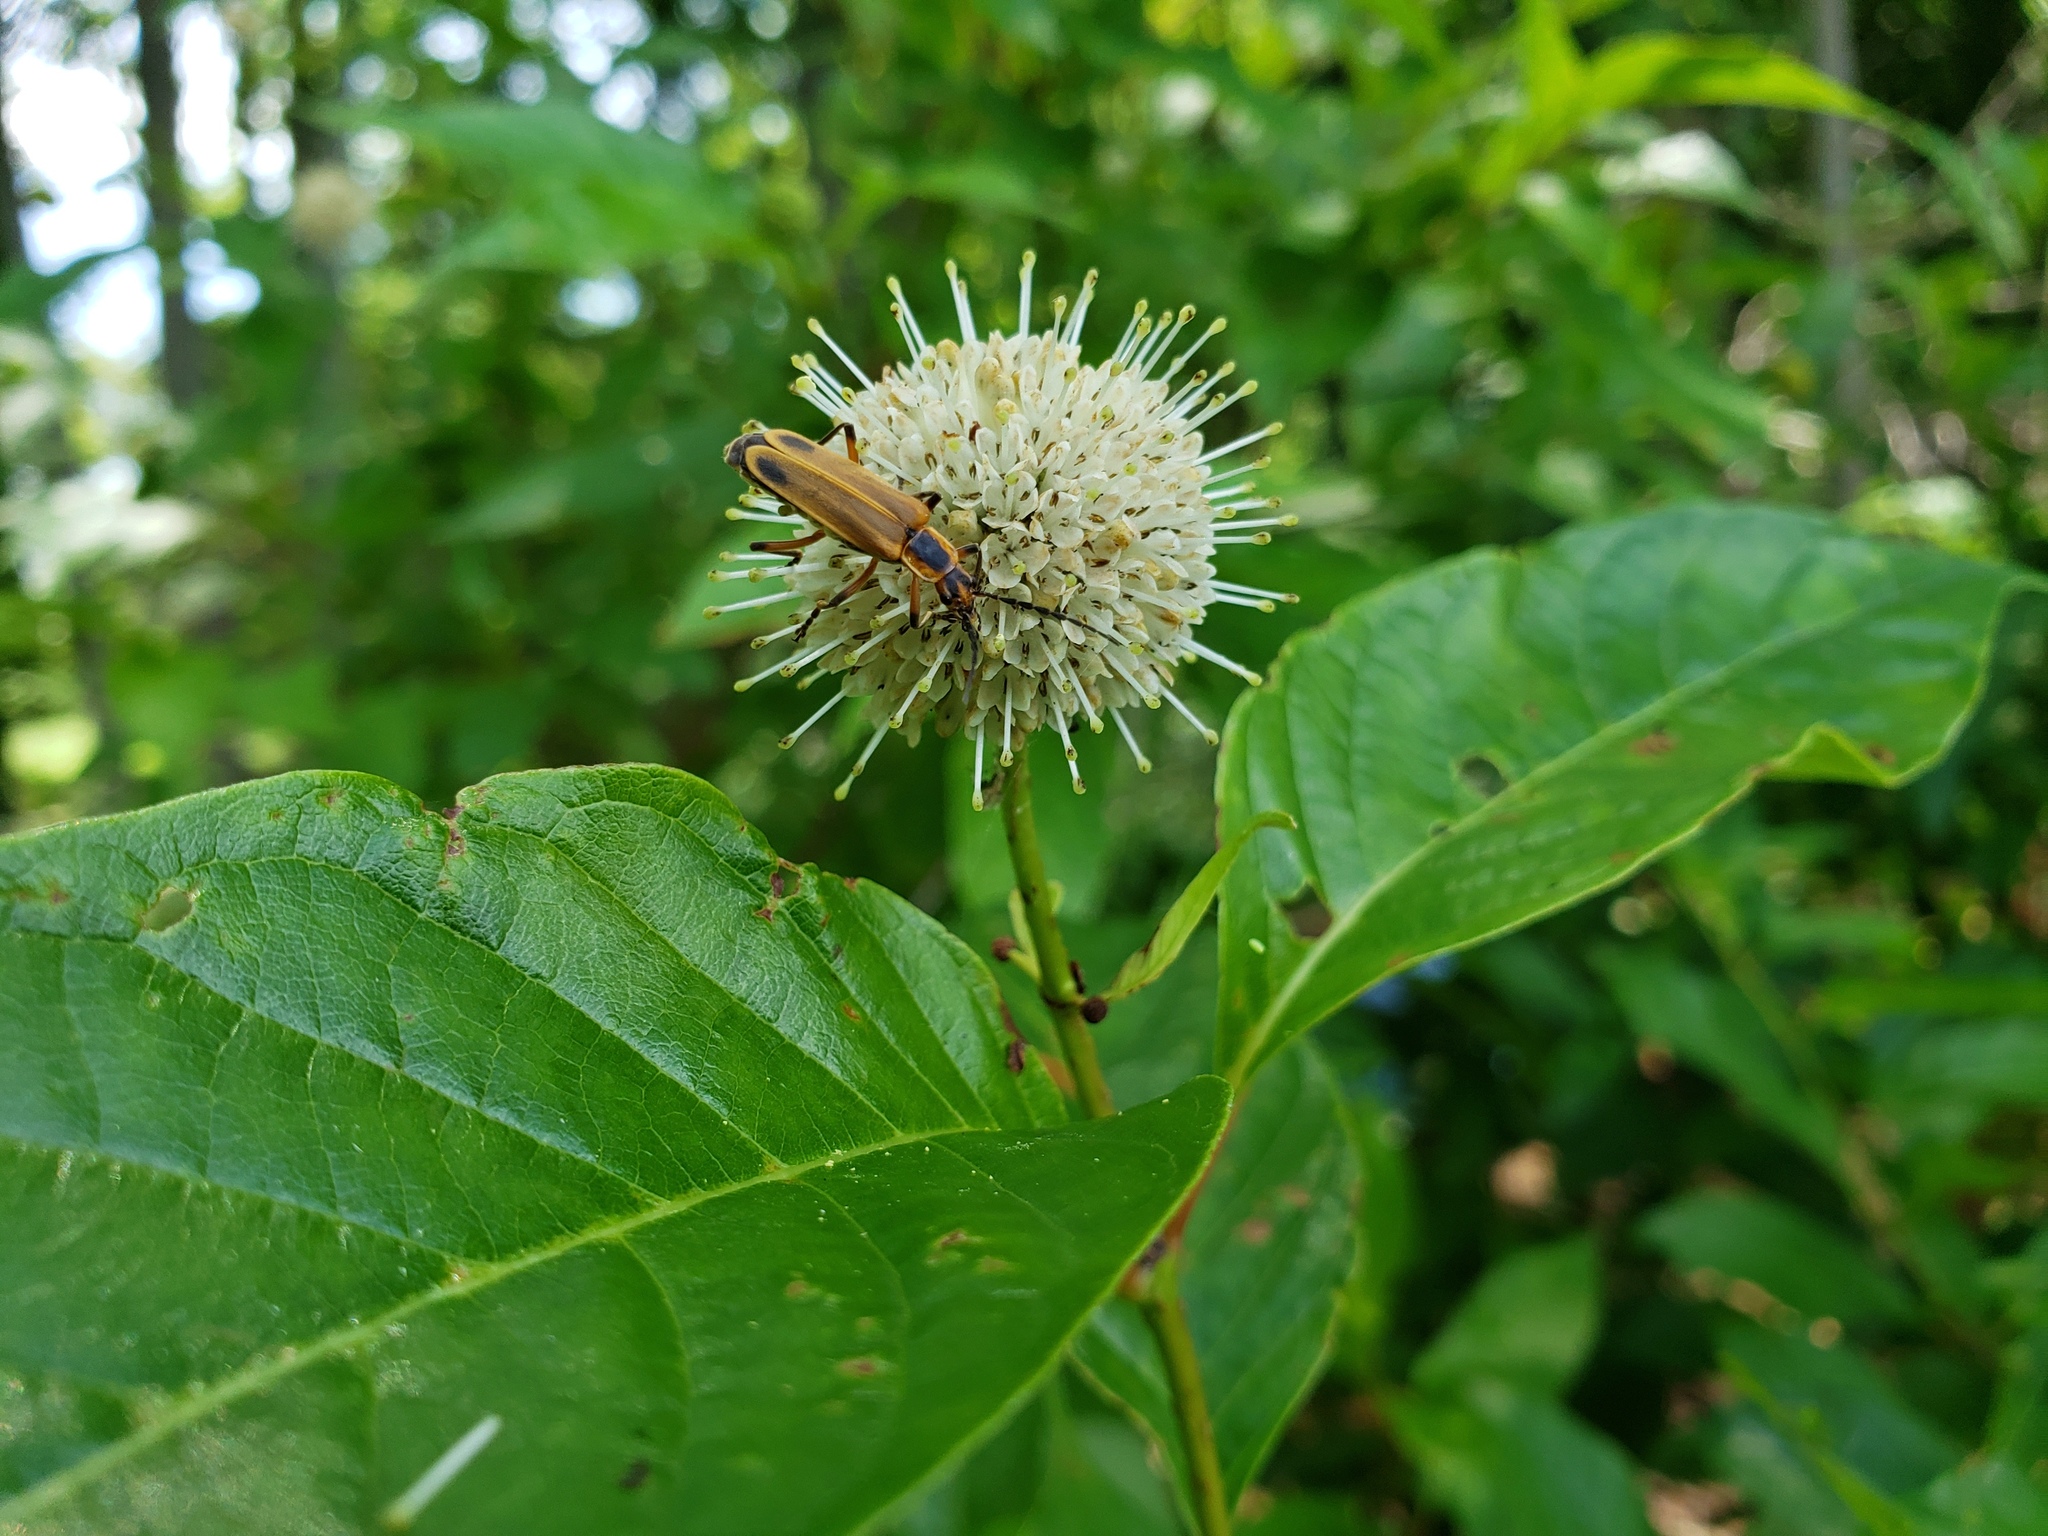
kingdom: Animalia
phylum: Arthropoda
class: Insecta
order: Coleoptera
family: Cantharidae
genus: Chauliognathus
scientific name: Chauliognathus marginatus
